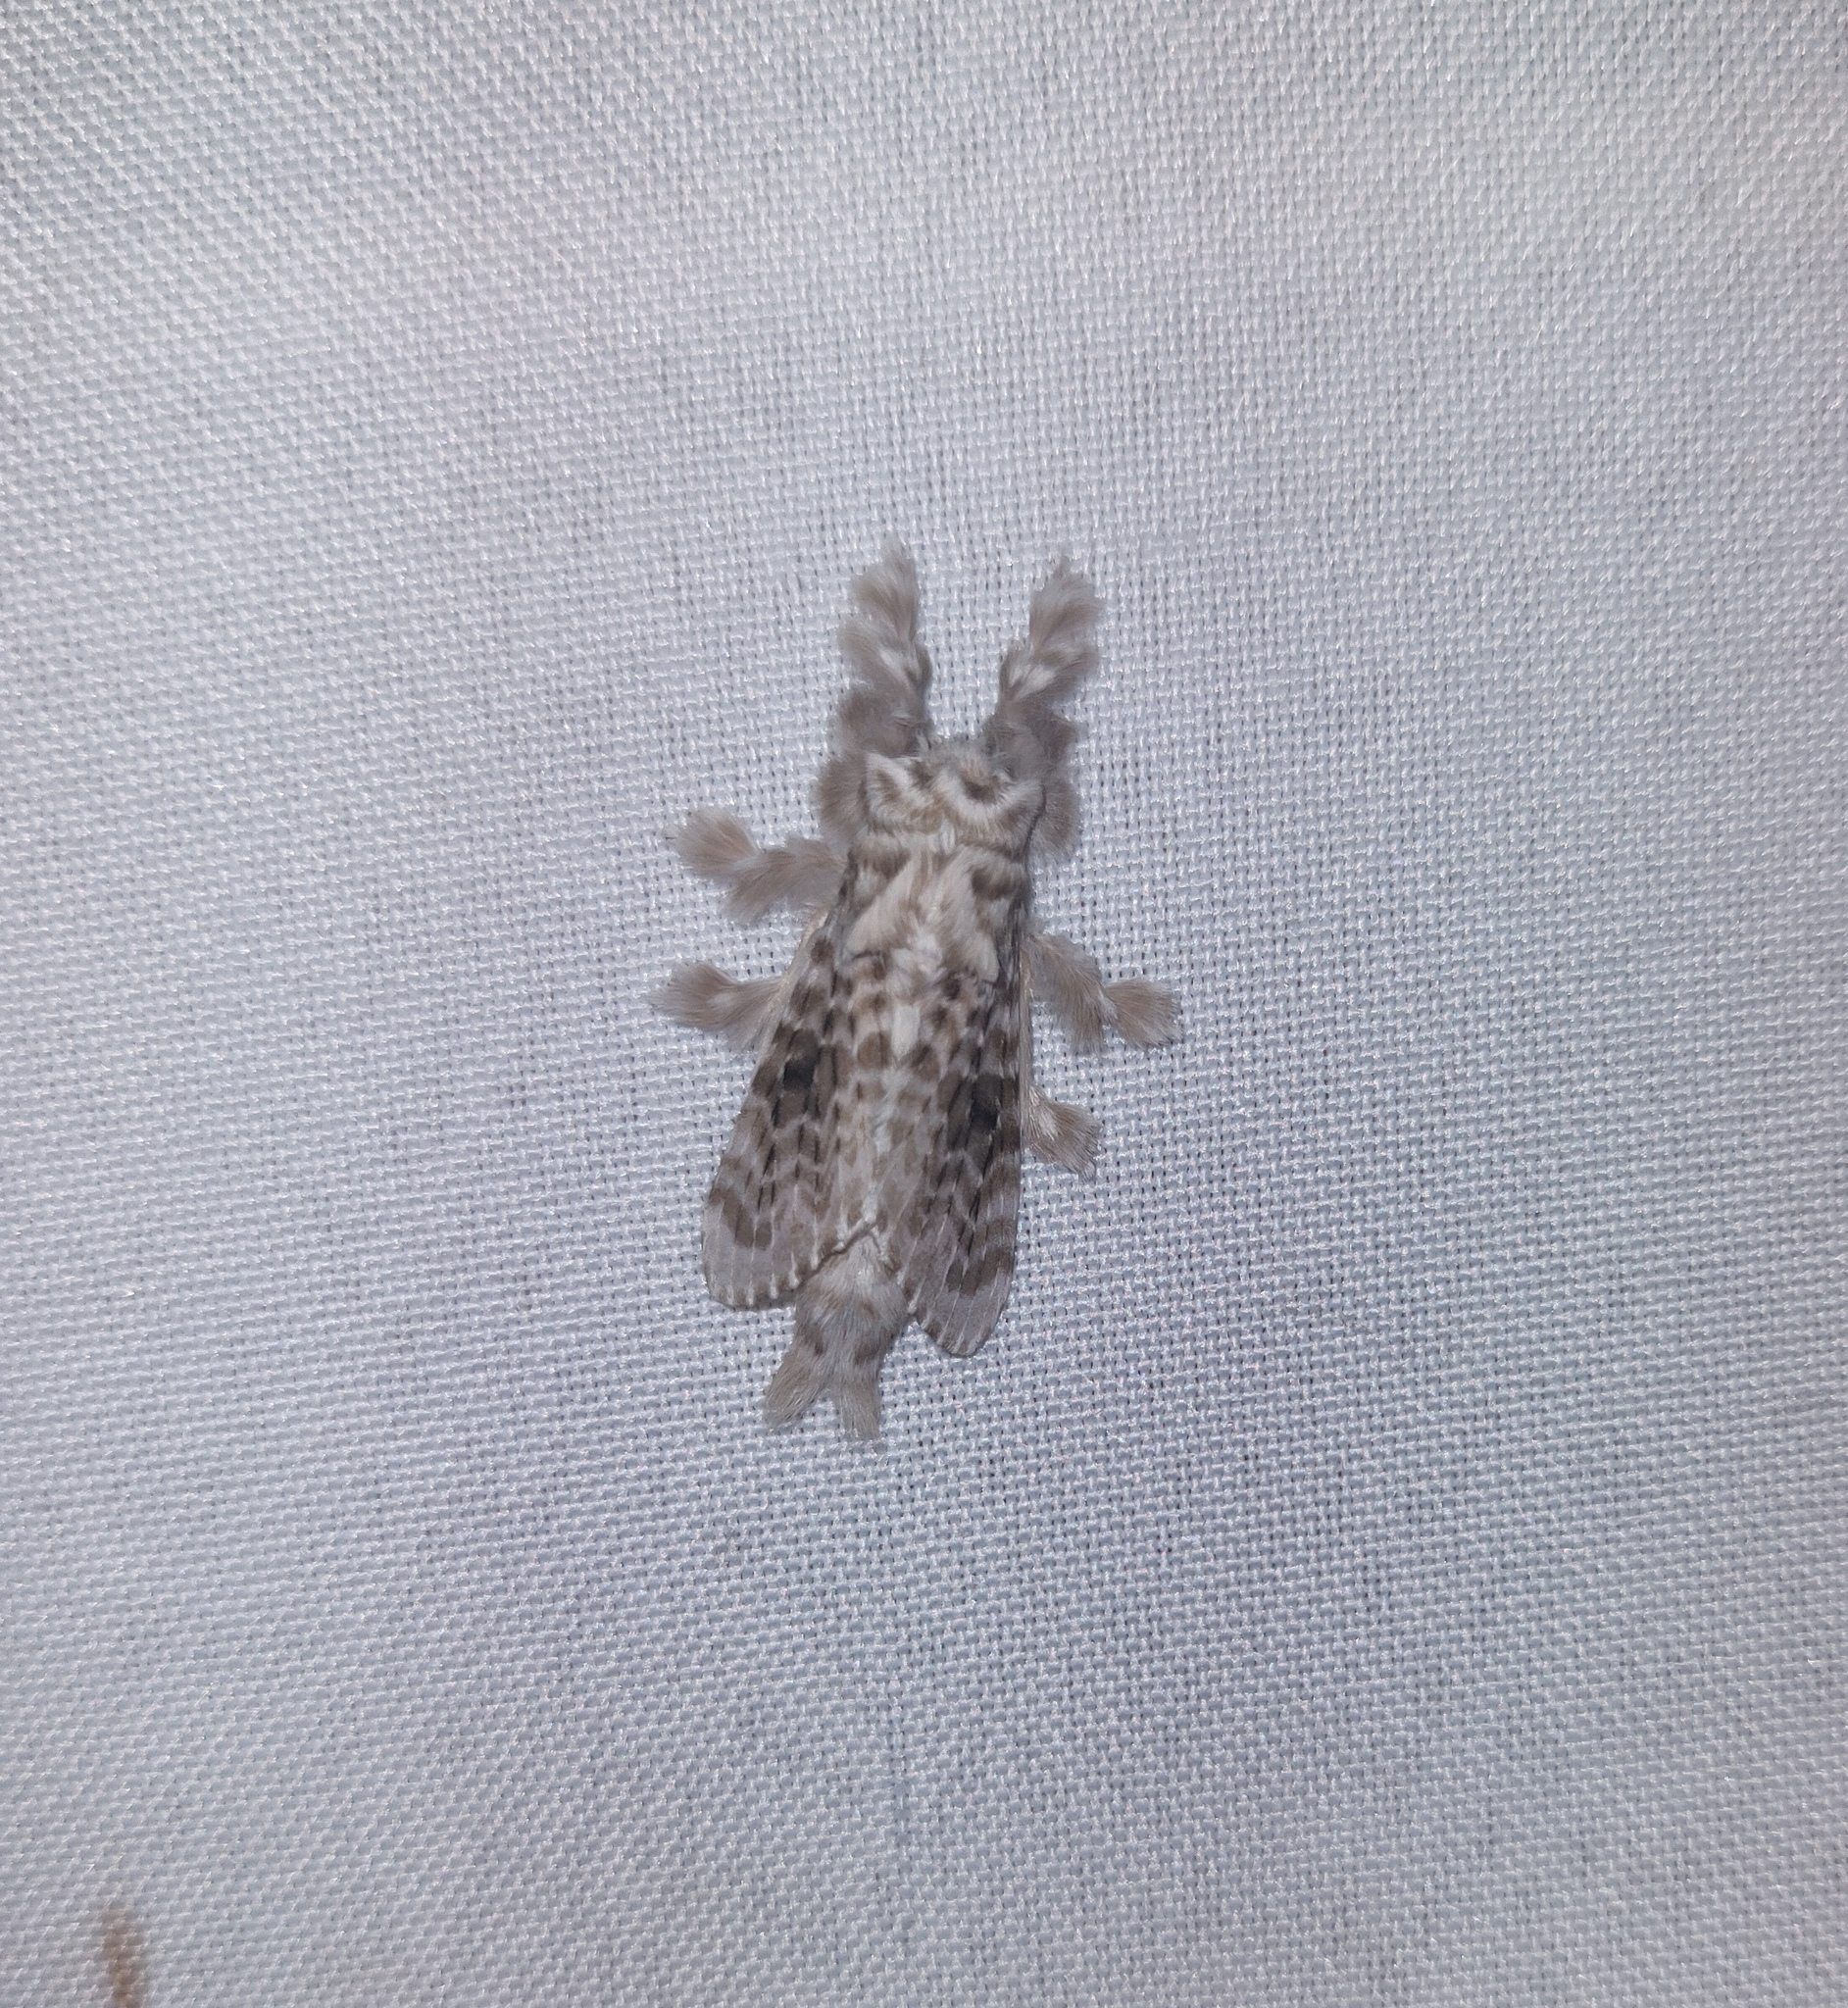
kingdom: Animalia
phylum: Arthropoda
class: Insecta
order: Lepidoptera
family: Lasiocampidae
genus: Titya
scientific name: Titya cain
